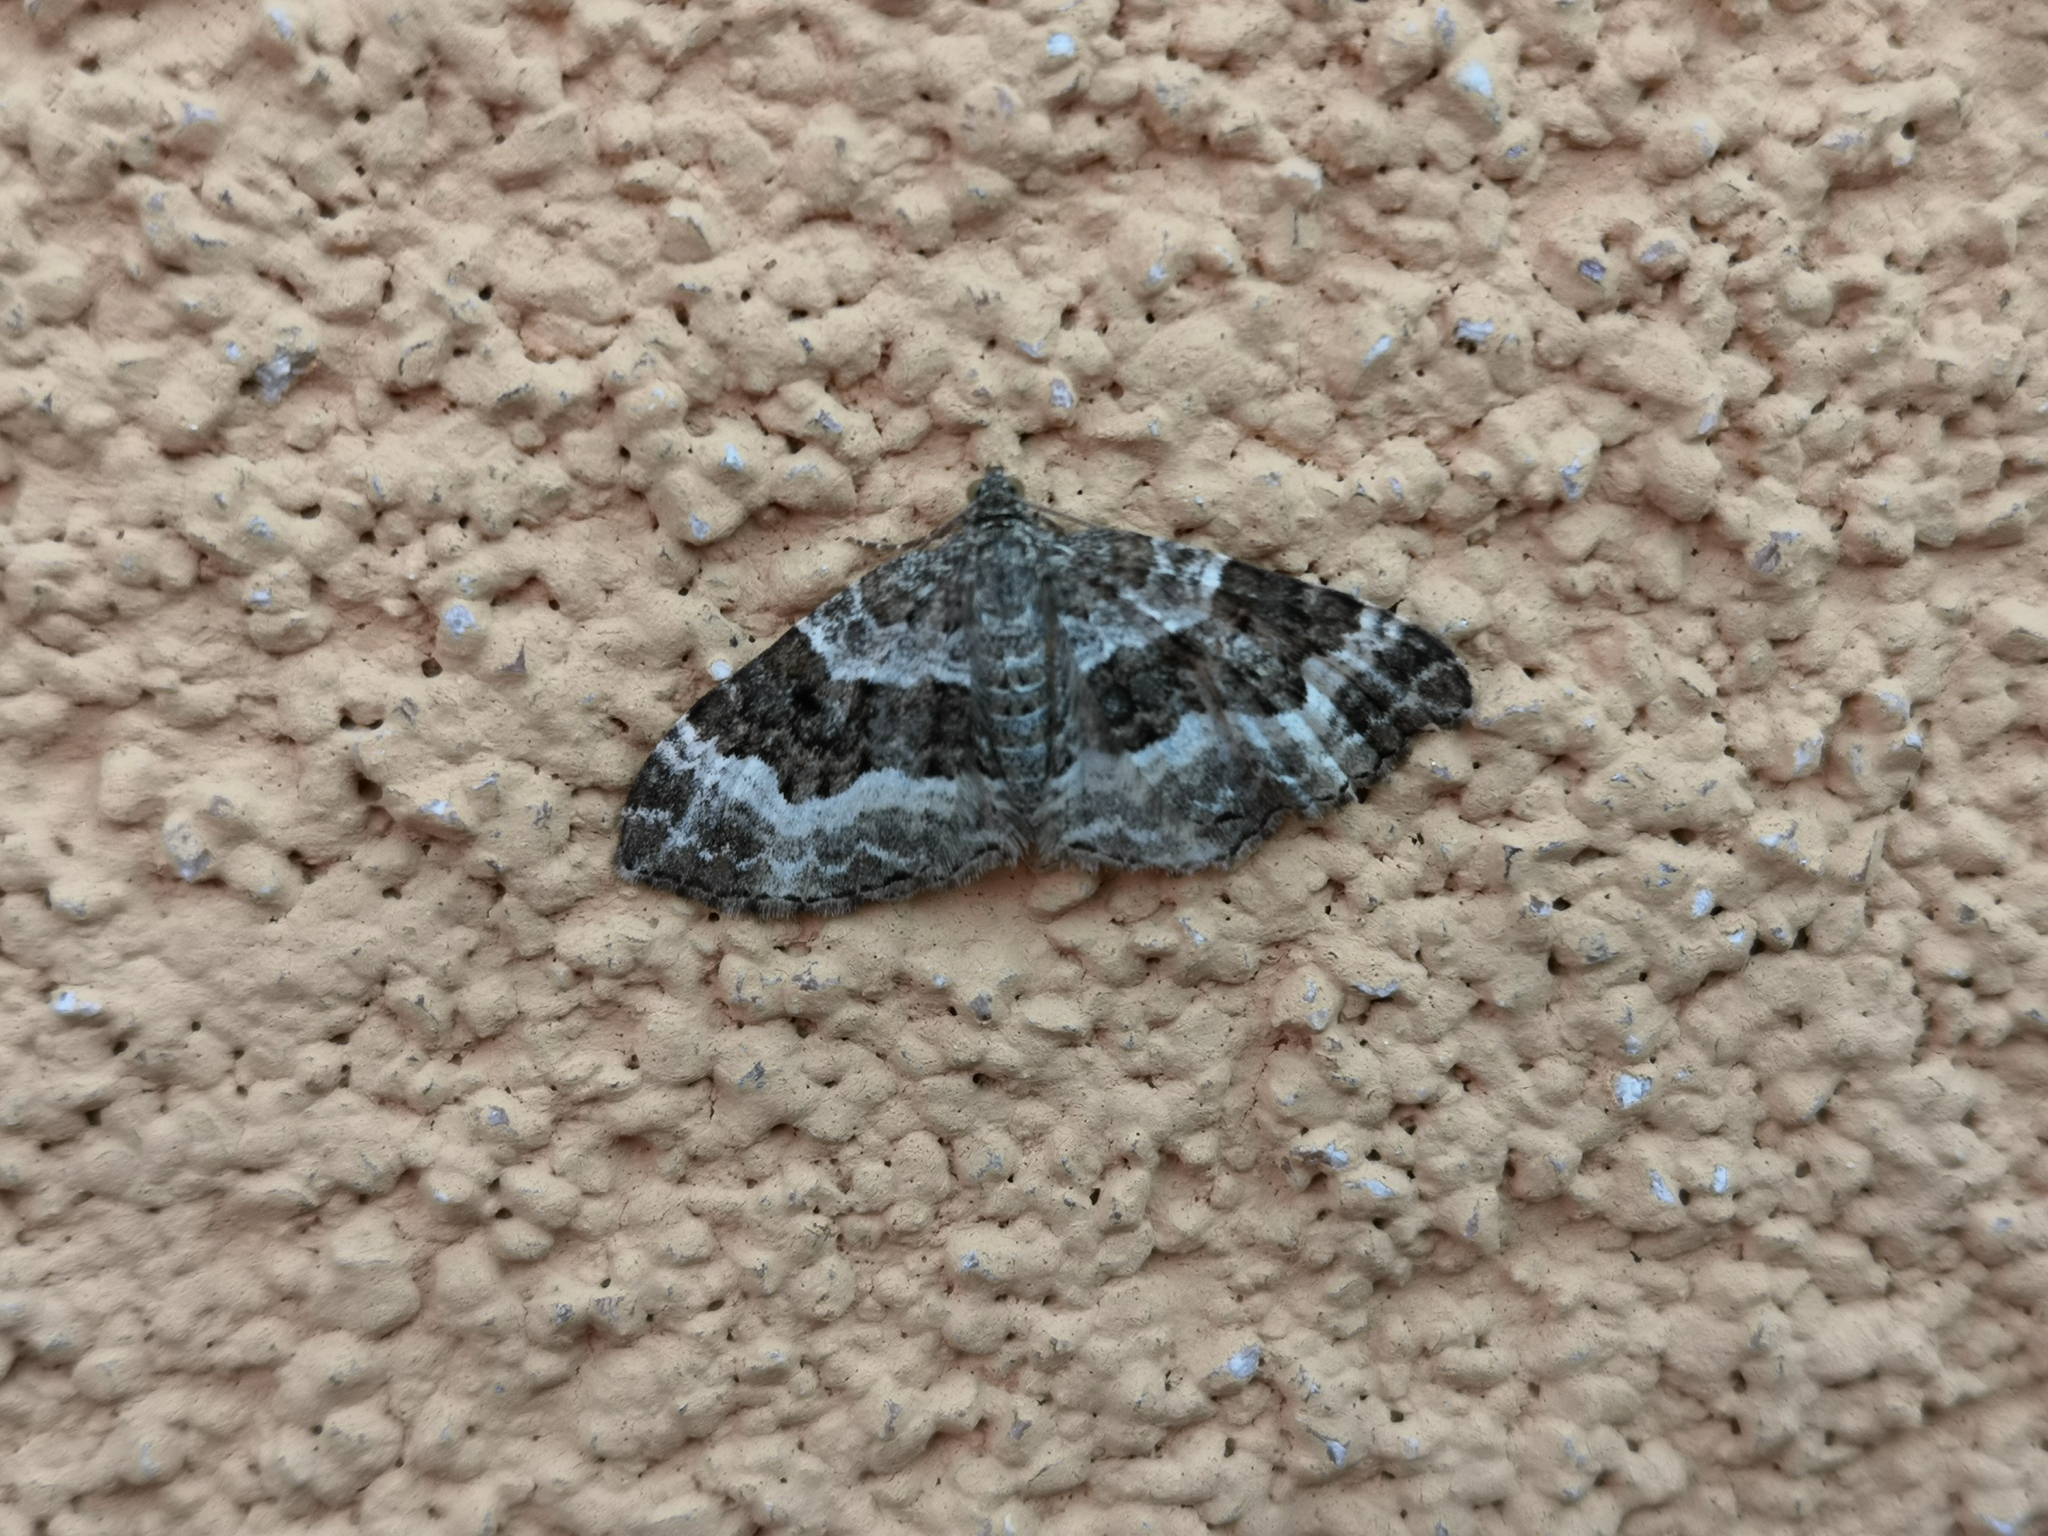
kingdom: Animalia
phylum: Arthropoda
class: Insecta
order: Lepidoptera
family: Geometridae
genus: Epirrhoe
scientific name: Epirrhoe alternata
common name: Common carpet
